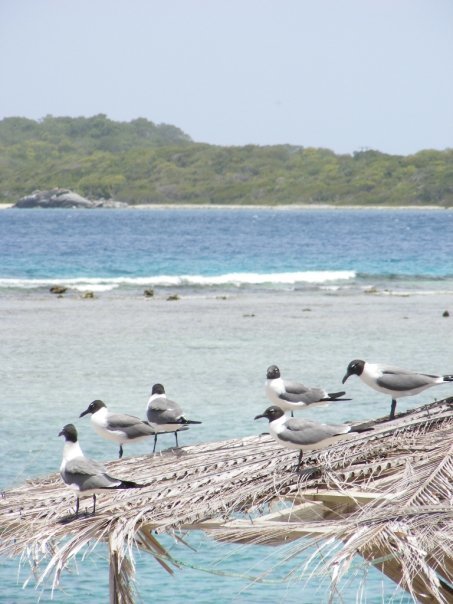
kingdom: Animalia
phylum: Chordata
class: Aves
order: Charadriiformes
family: Laridae
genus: Leucophaeus
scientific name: Leucophaeus atricilla
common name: Laughing gull
